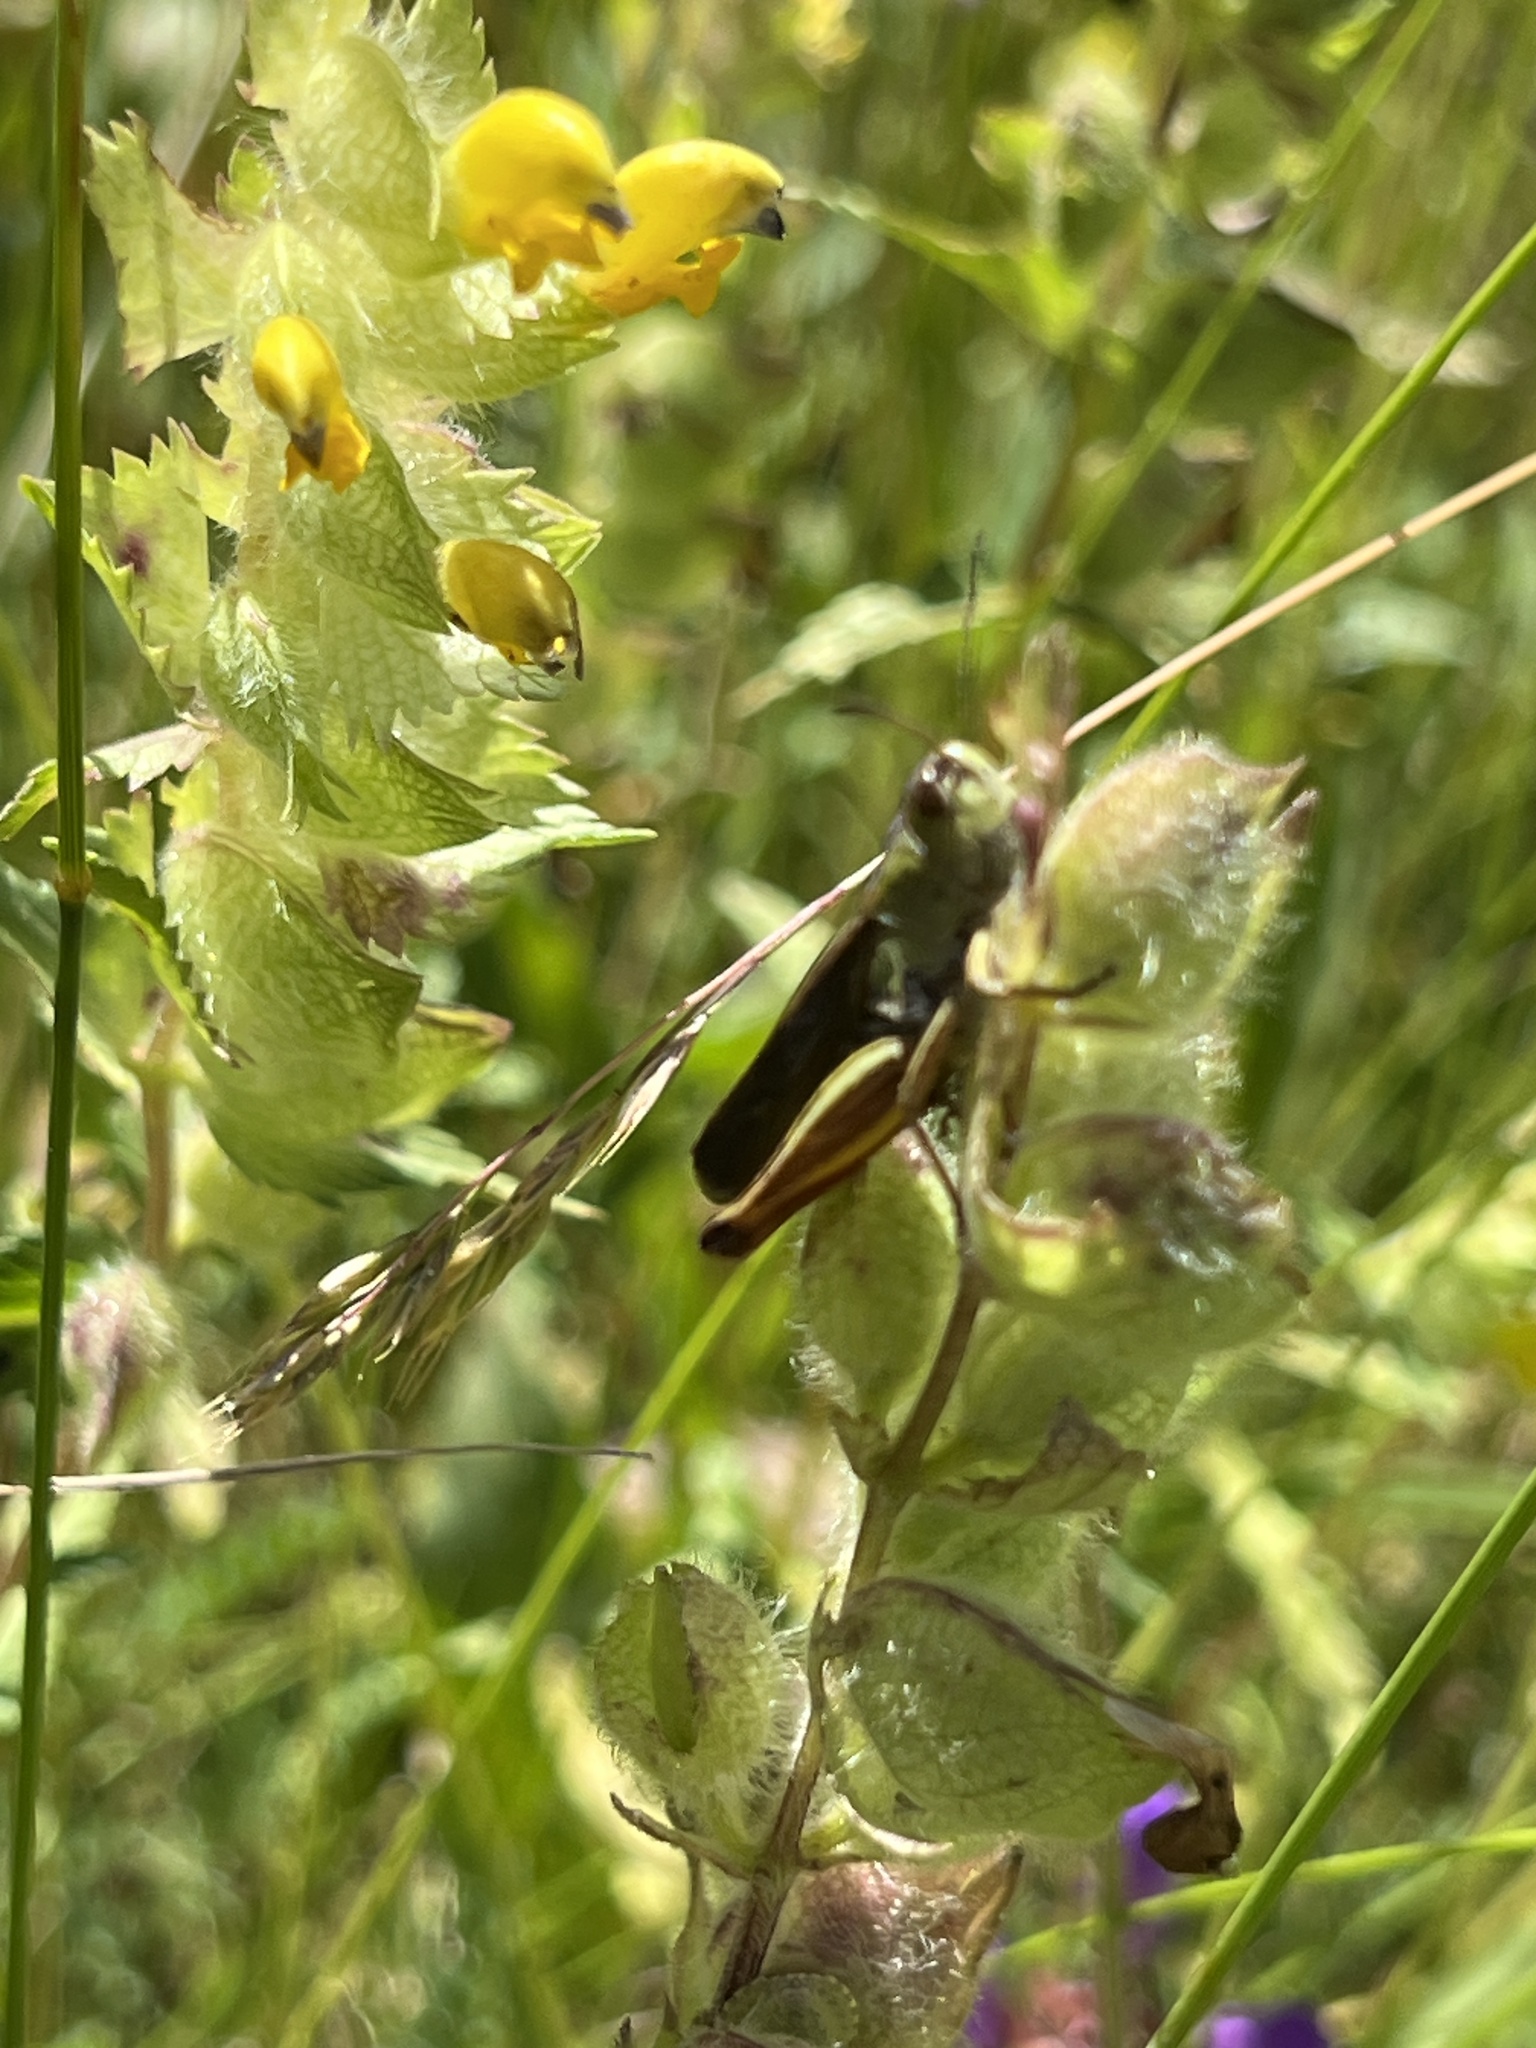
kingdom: Animalia
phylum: Arthropoda
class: Insecta
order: Orthoptera
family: Acrididae
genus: Stauroderus
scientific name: Stauroderus scalaris
